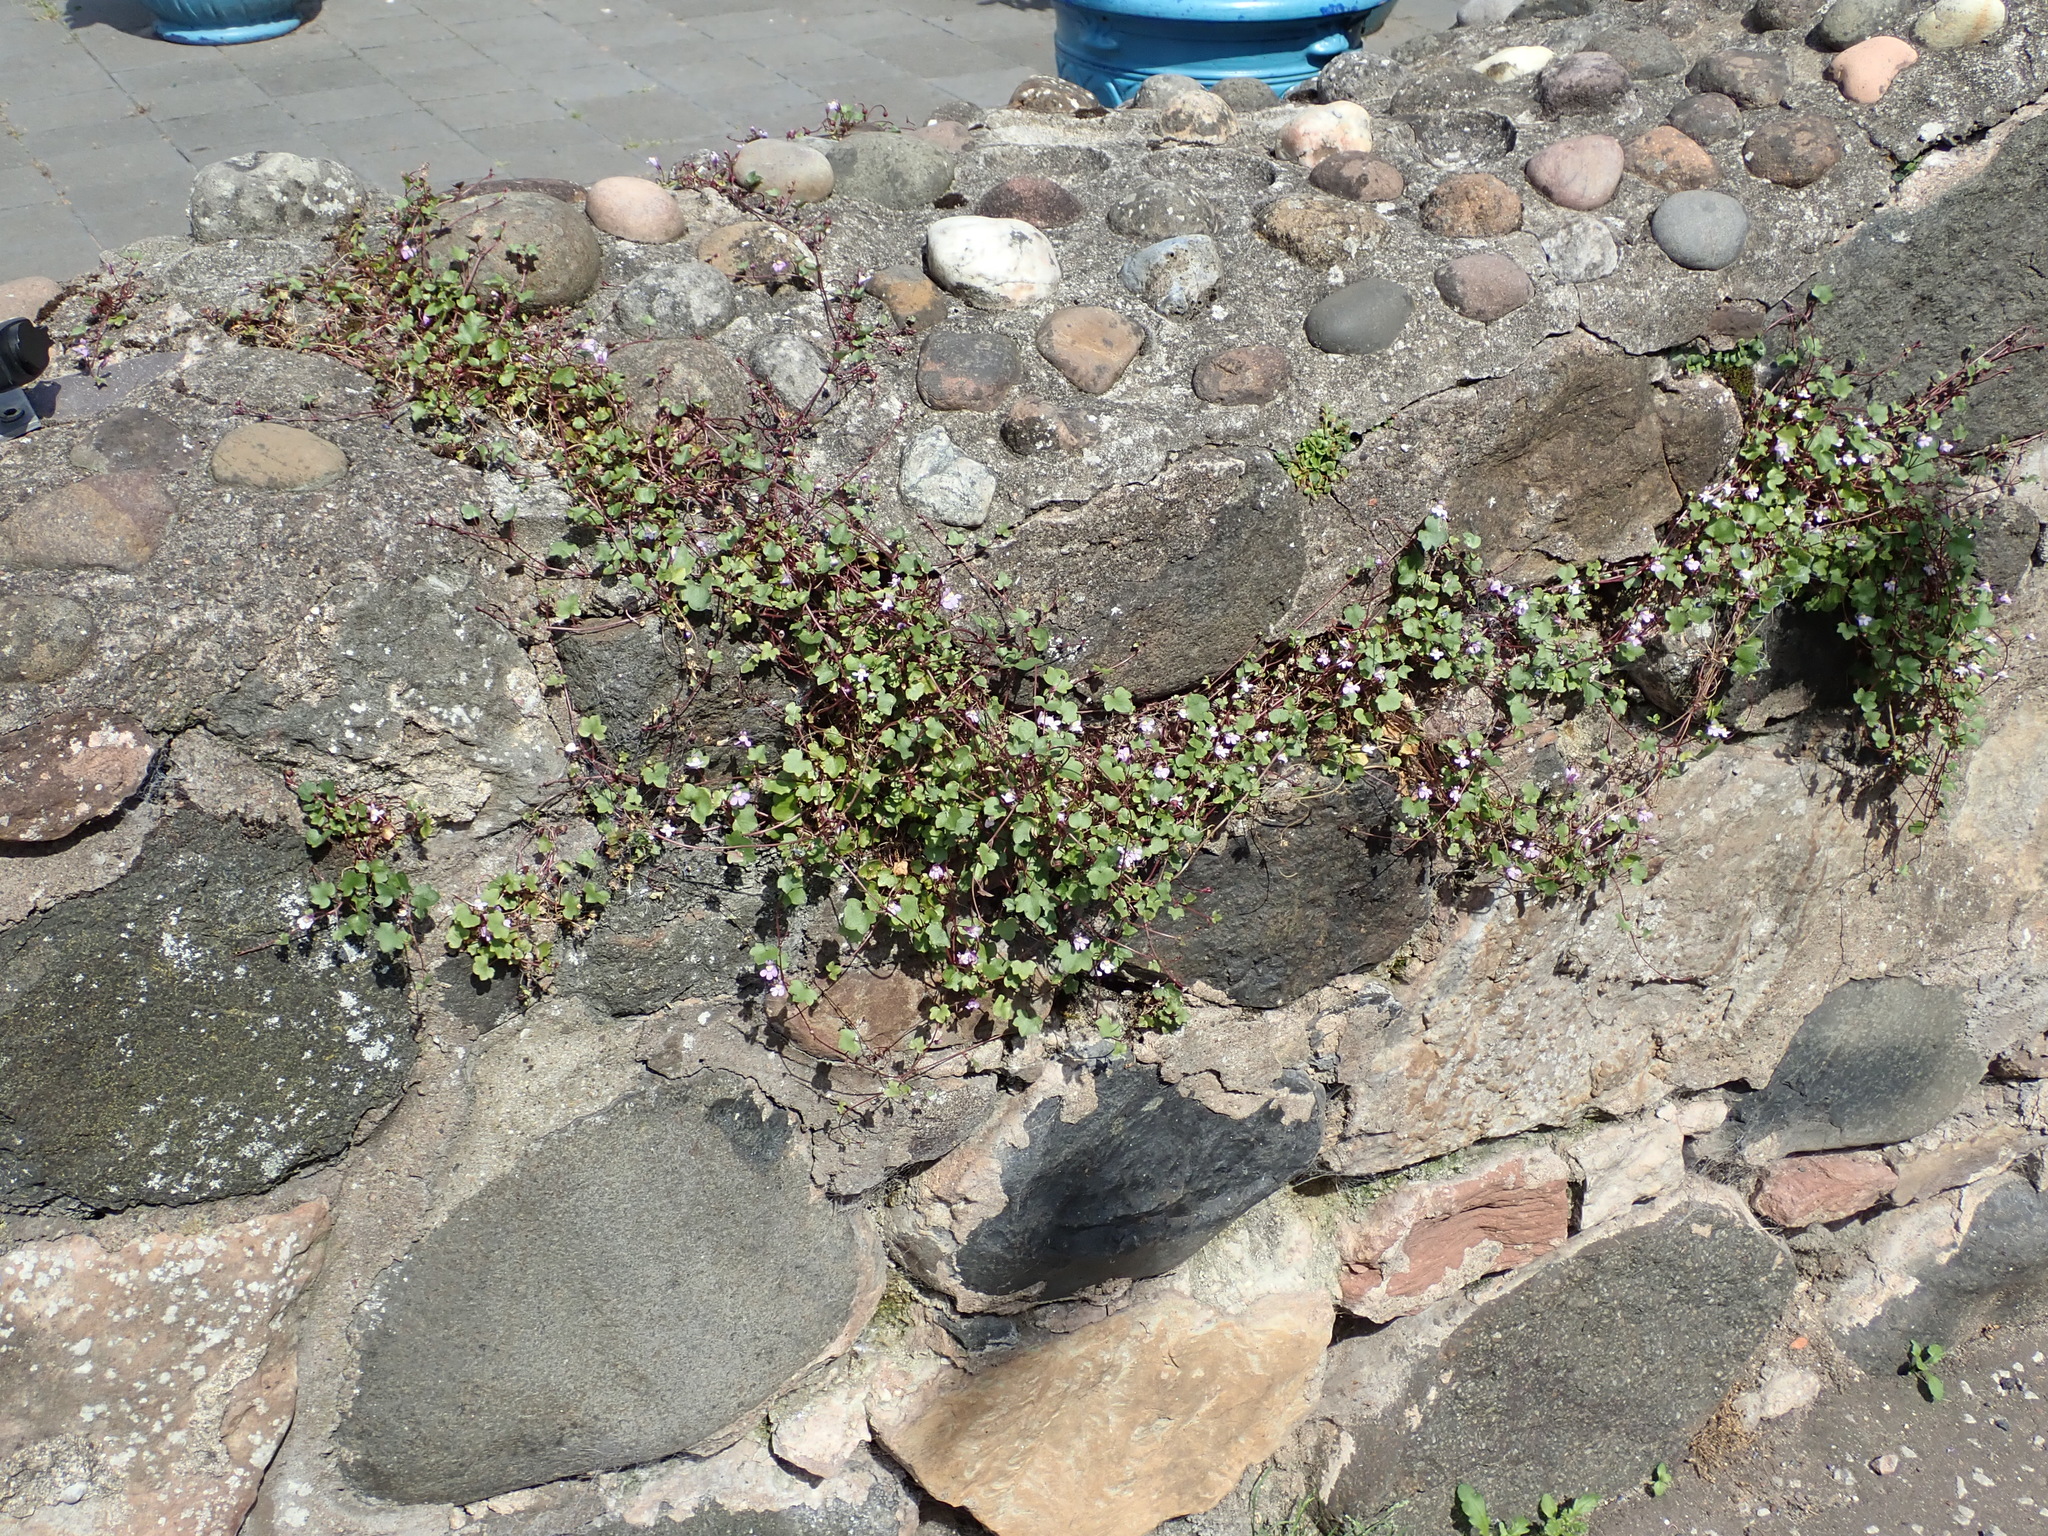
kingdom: Plantae
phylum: Tracheophyta
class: Magnoliopsida
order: Lamiales
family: Plantaginaceae
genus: Cymbalaria
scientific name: Cymbalaria muralis
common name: Ivy-leaved toadflax
